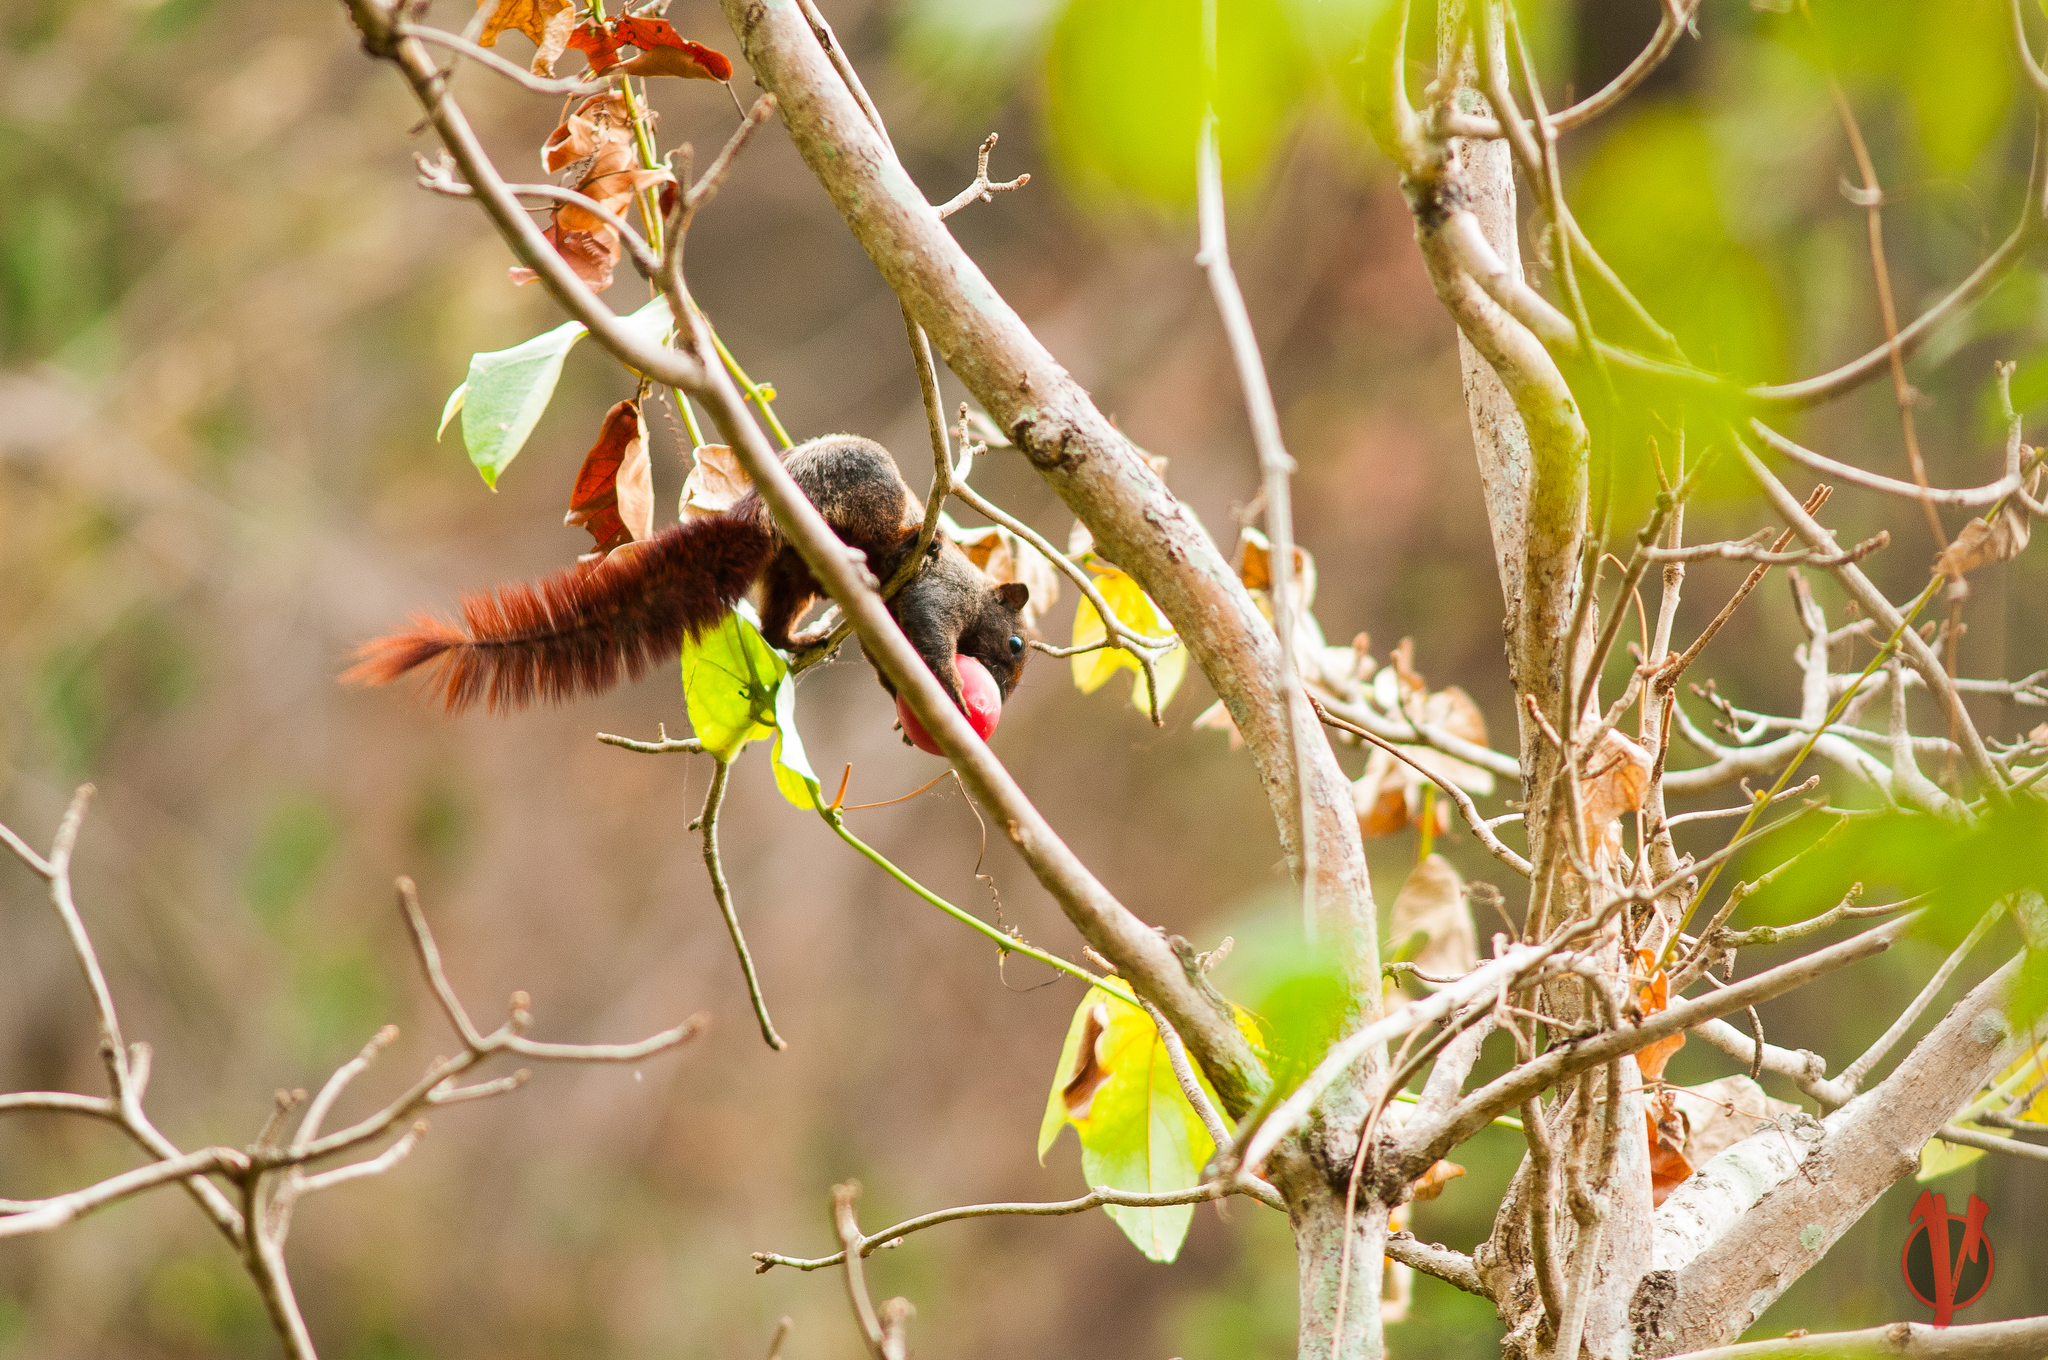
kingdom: Animalia
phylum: Chordata
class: Mammalia
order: Rodentia
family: Sciuridae
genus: Callosciurus
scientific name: Callosciurus finlaysonii
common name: Finlayson's squirrel
